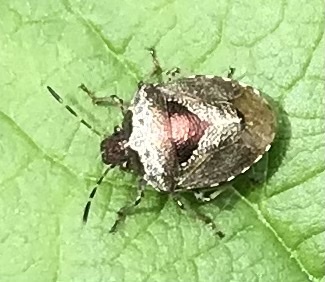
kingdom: Animalia
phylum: Arthropoda
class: Insecta
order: Hemiptera
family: Pentatomidae
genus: Eysarcoris
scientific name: Eysarcoris venustissimus
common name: Woundwort shieldbug
